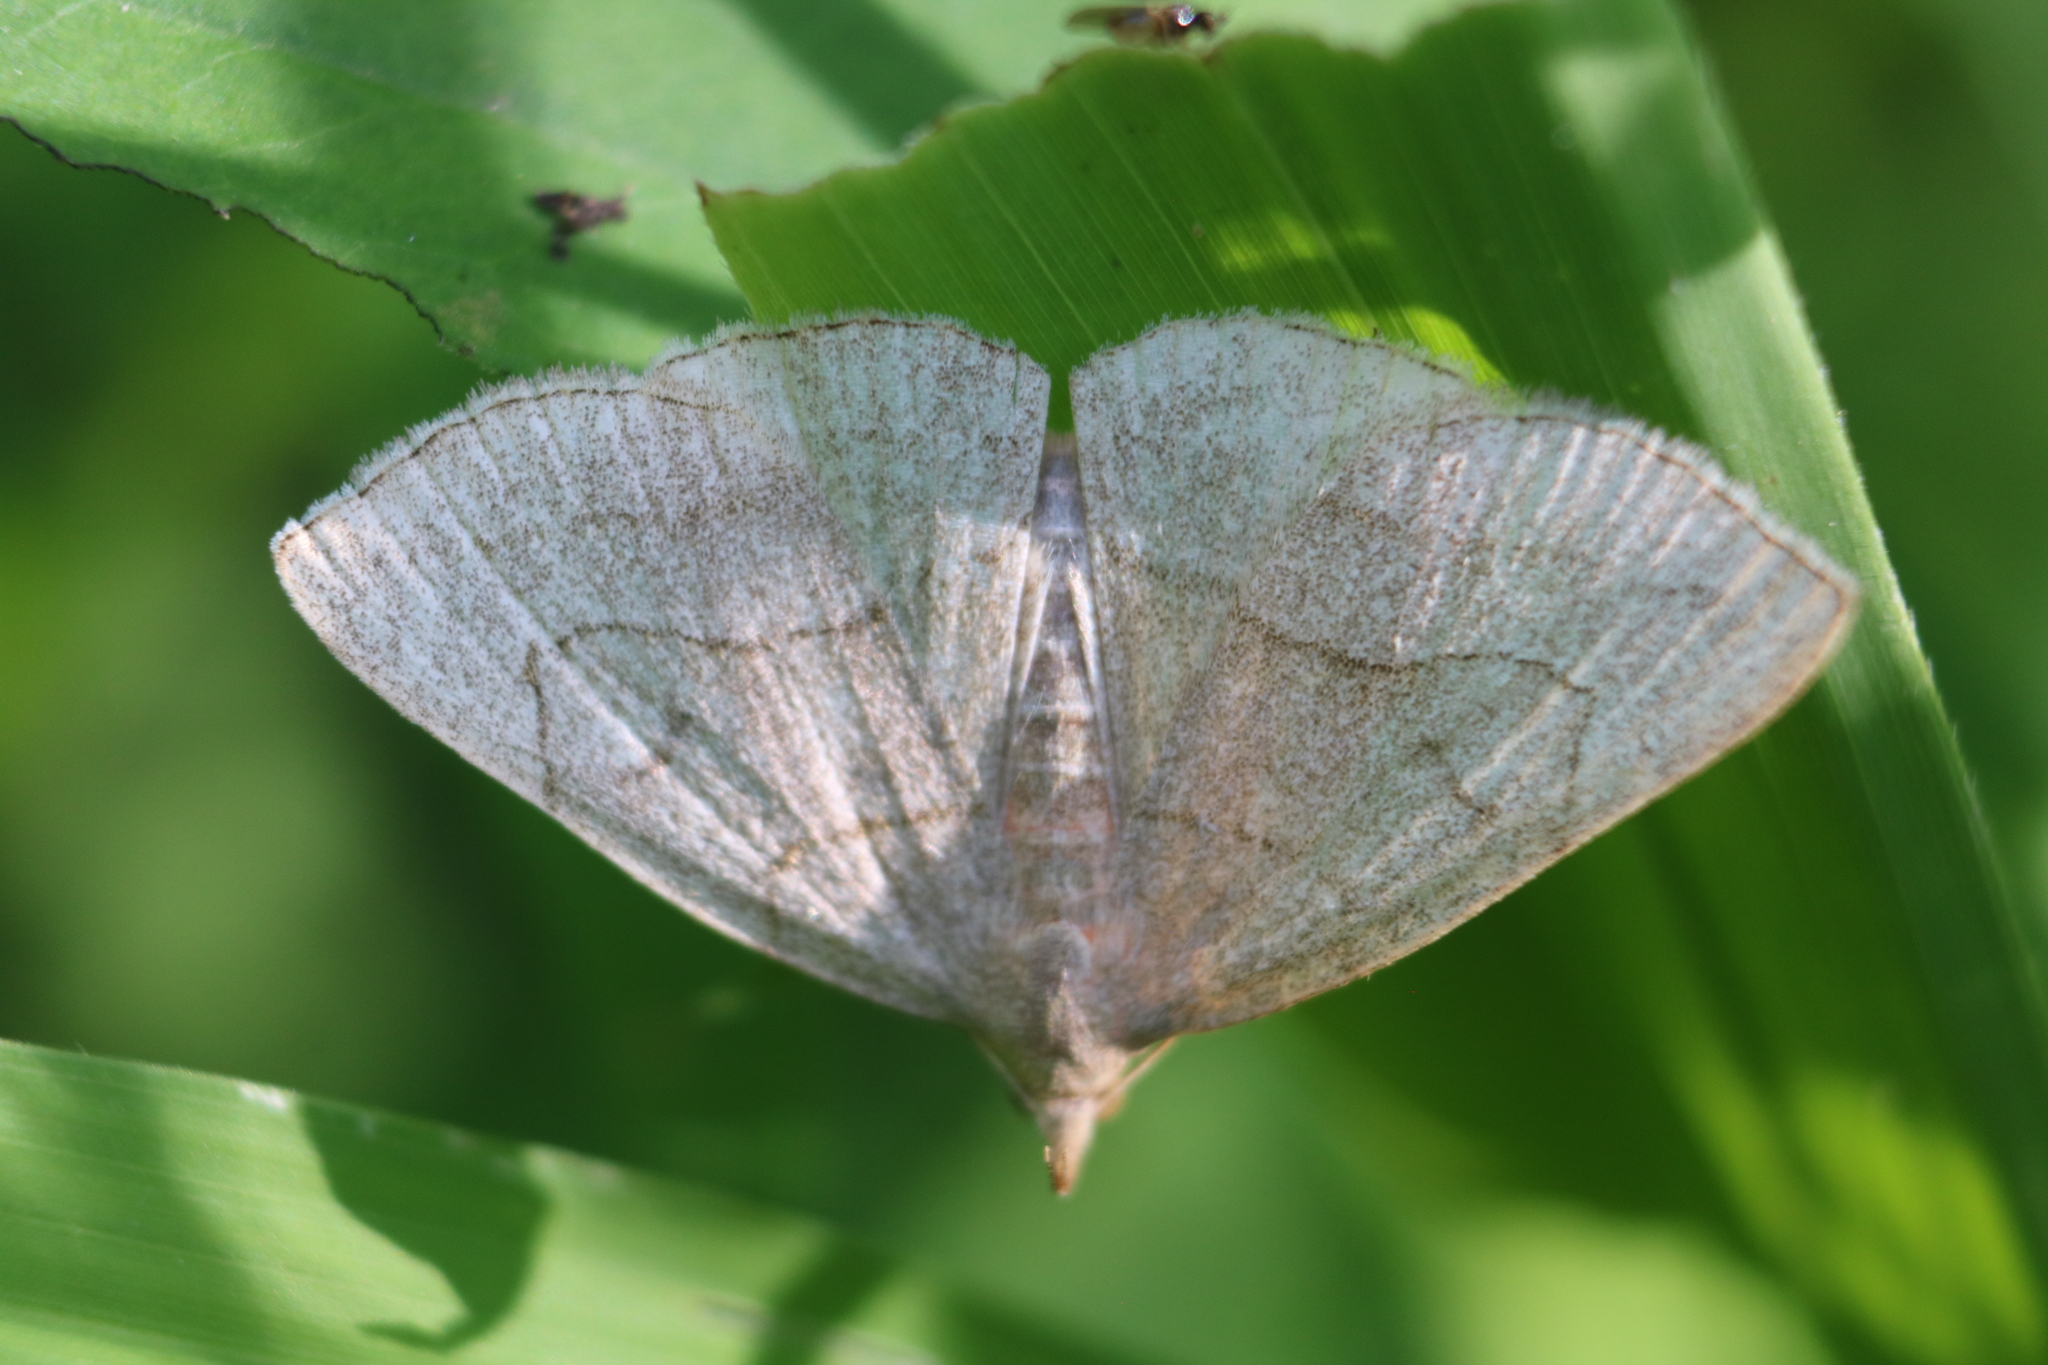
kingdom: Animalia
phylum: Arthropoda
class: Insecta
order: Lepidoptera
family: Erebidae
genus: Zanclognatha
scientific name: Zanclognatha pedipilalis
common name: Grayish fan-foot
